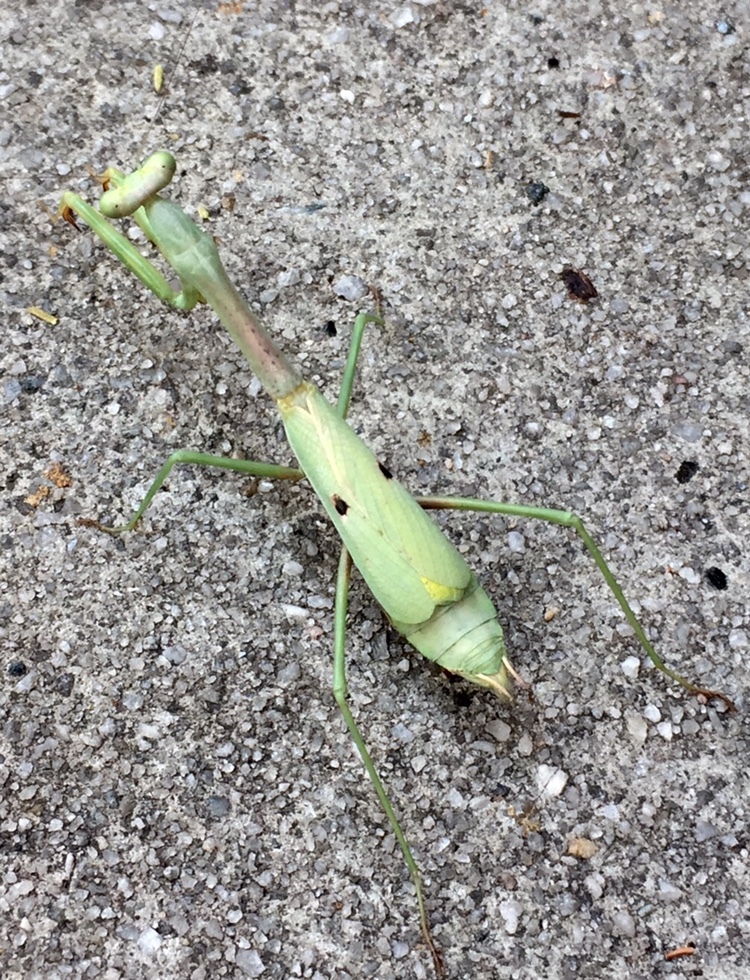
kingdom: Animalia
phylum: Arthropoda
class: Insecta
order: Mantodea
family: Mantidae
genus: Stagmomantis
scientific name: Stagmomantis carolina
